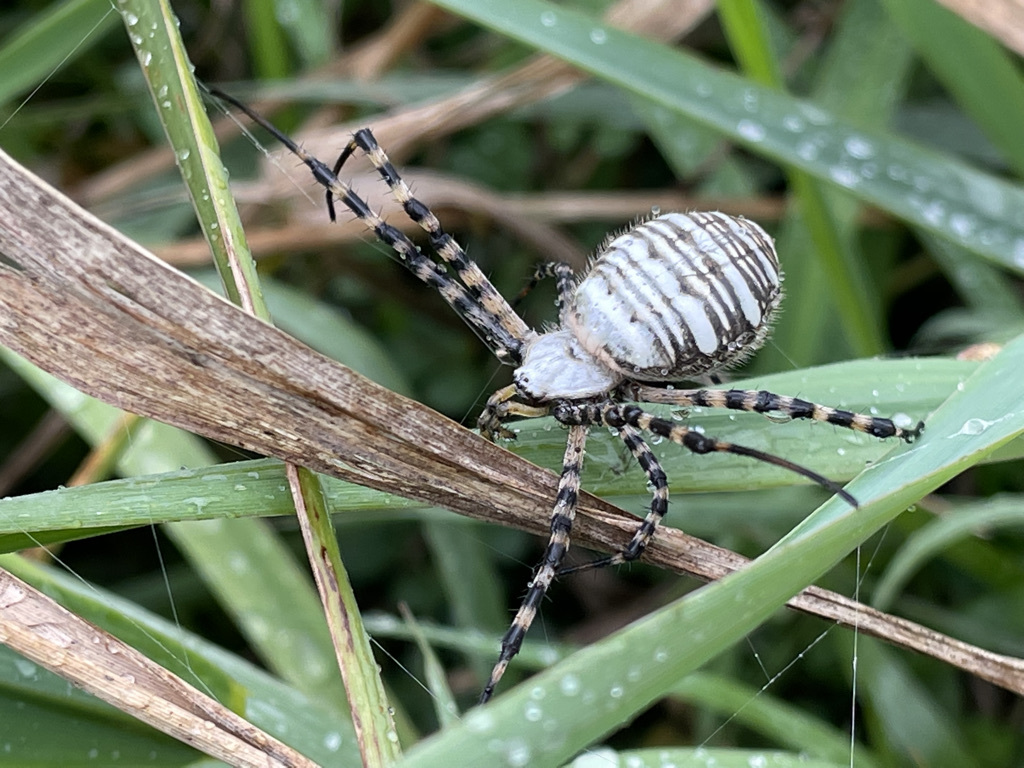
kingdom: Animalia
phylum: Arthropoda
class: Arachnida
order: Araneae
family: Araneidae
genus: Argiope
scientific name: Argiope trifasciata
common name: Banded garden spider
